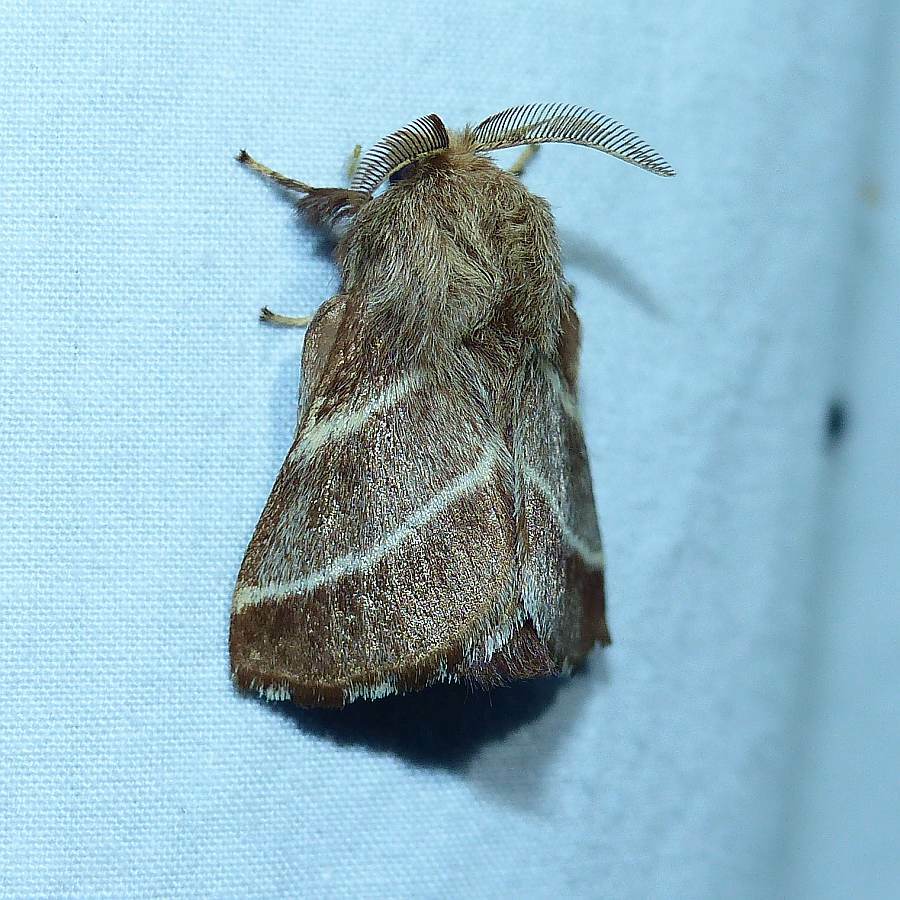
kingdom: Animalia
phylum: Arthropoda
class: Insecta
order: Lepidoptera
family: Lasiocampidae
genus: Malacosoma
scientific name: Malacosoma americana
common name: Eastern tent caterpillar moth
